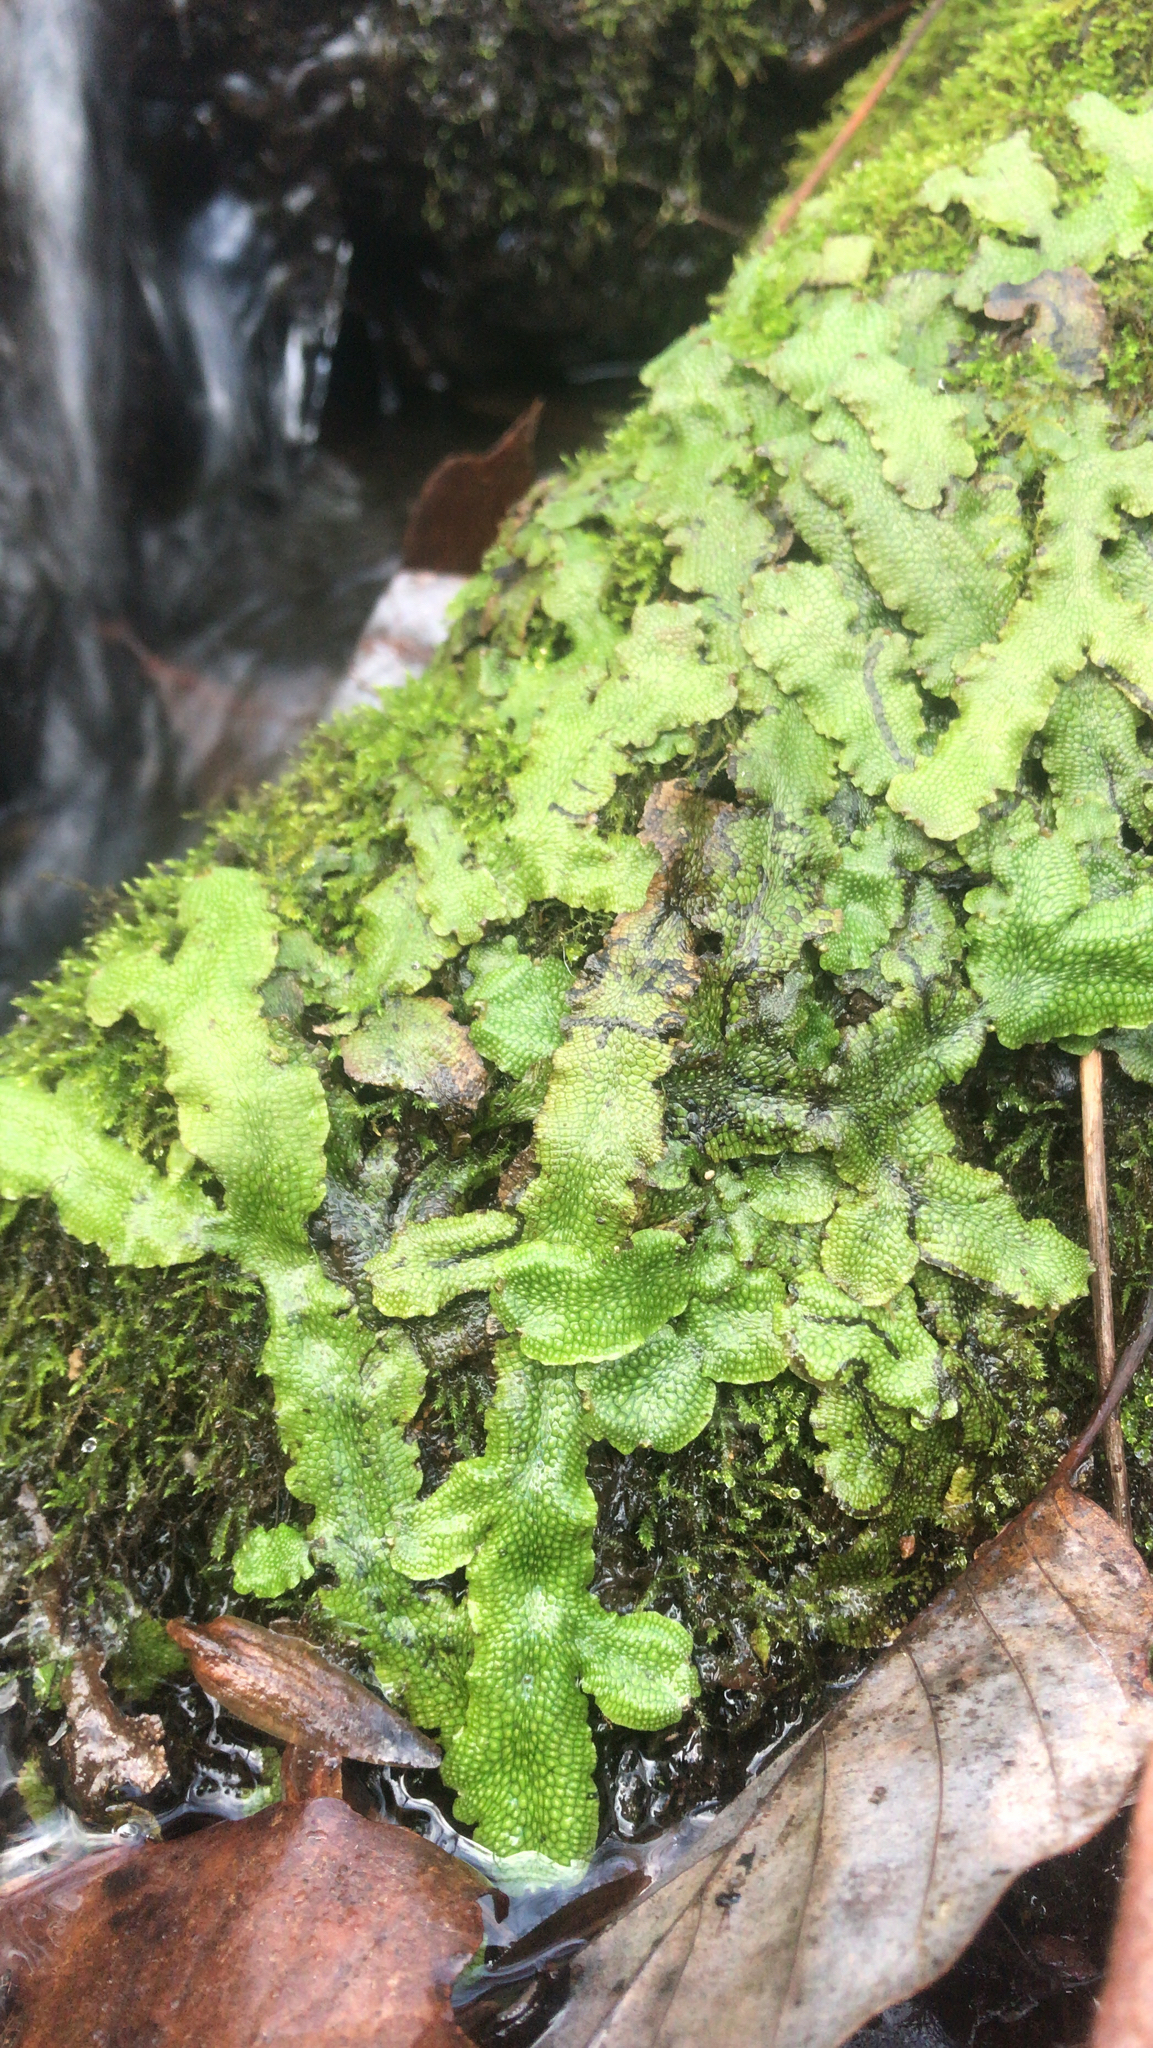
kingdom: Plantae
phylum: Marchantiophyta
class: Marchantiopsida
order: Marchantiales
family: Conocephalaceae
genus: Conocephalum
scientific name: Conocephalum salebrosum
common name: Cat-tongue liverwort
